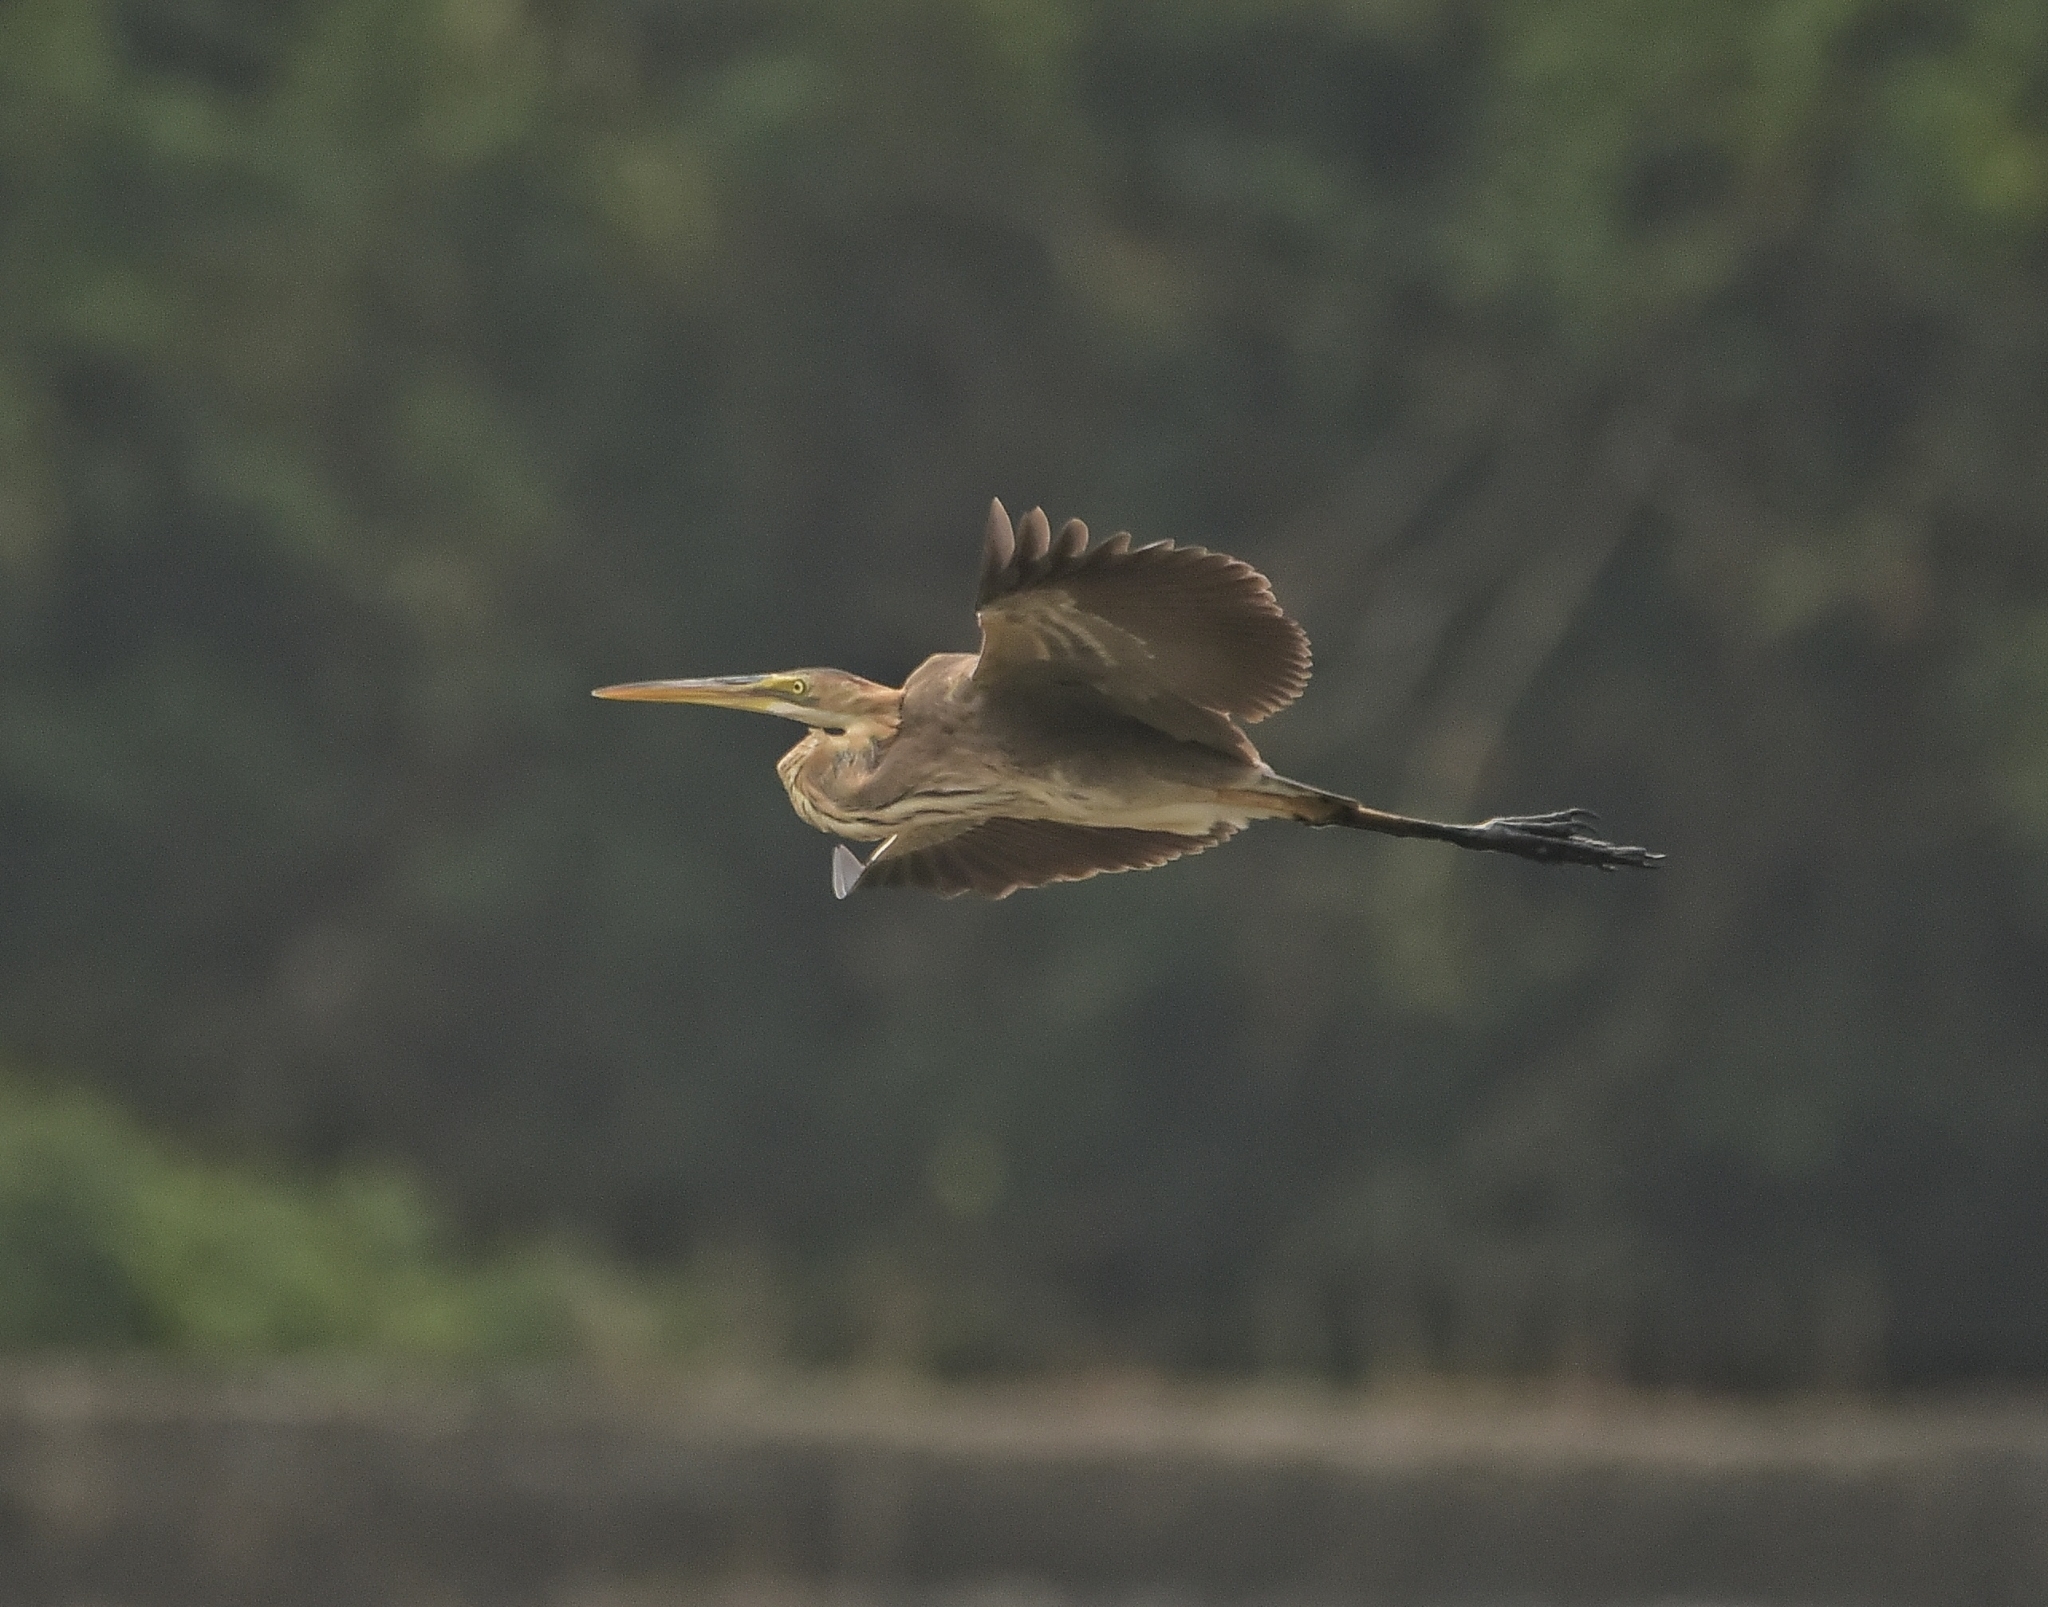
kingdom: Animalia
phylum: Chordata
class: Aves
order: Pelecaniformes
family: Ardeidae
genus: Ardea
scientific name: Ardea purpurea
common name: Purple heron
